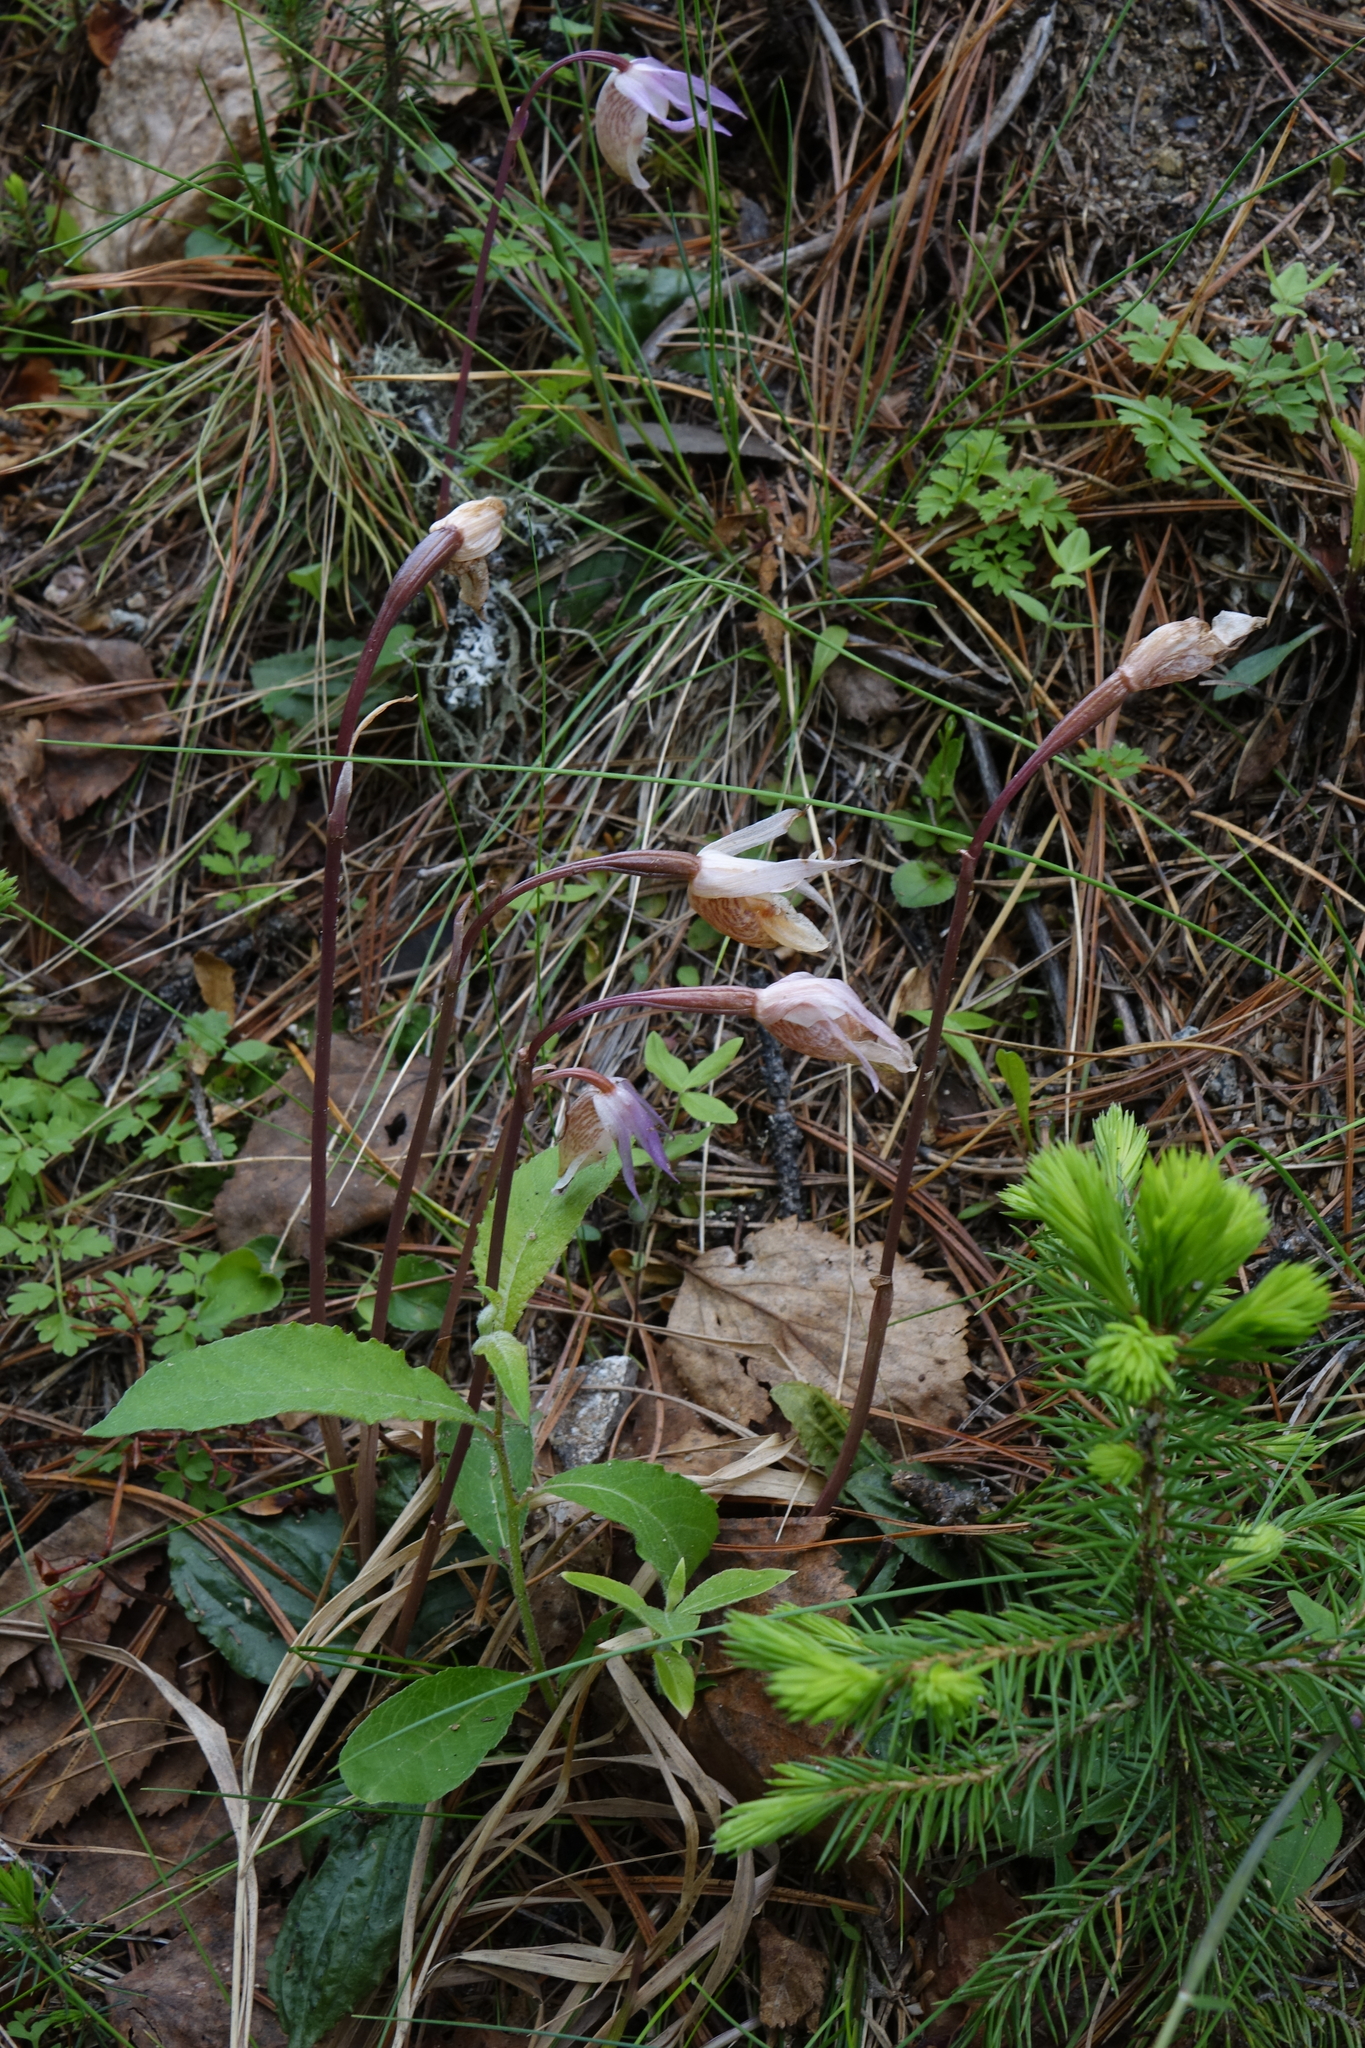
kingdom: Plantae
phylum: Tracheophyta
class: Pinopsida
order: Pinales
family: Pinaceae
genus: Picea
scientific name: Picea obovata
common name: Siberian spruce
